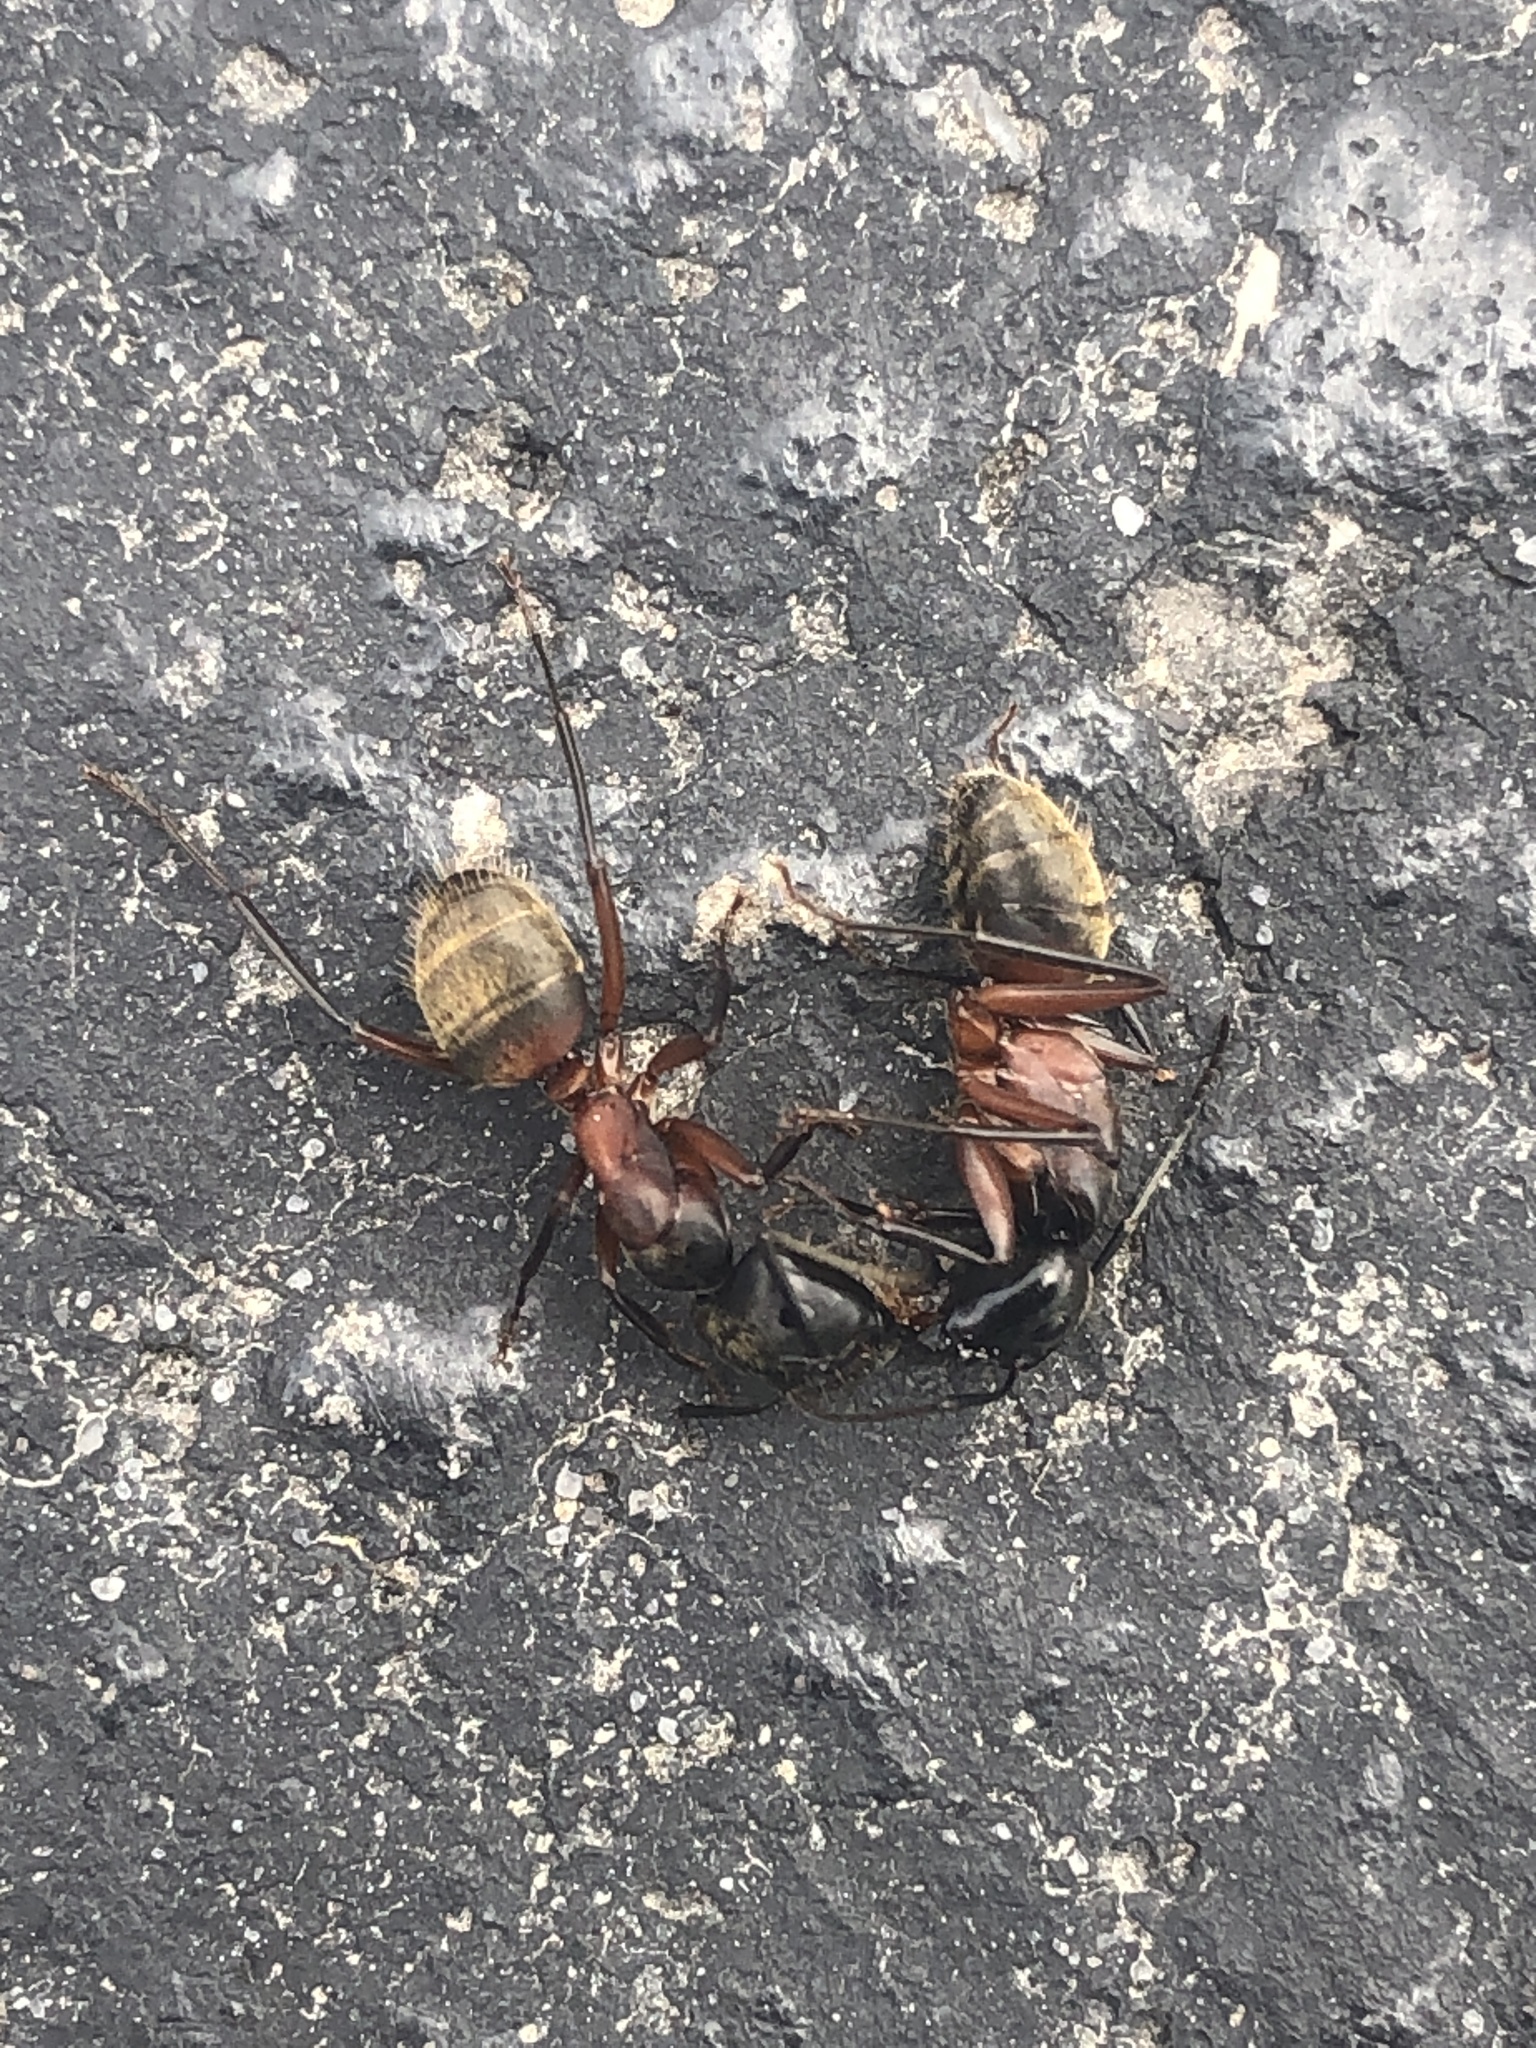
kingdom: Animalia
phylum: Arthropoda
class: Insecta
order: Hymenoptera
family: Formicidae
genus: Camponotus
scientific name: Camponotus chromaiodes
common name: Red carpenter ant
